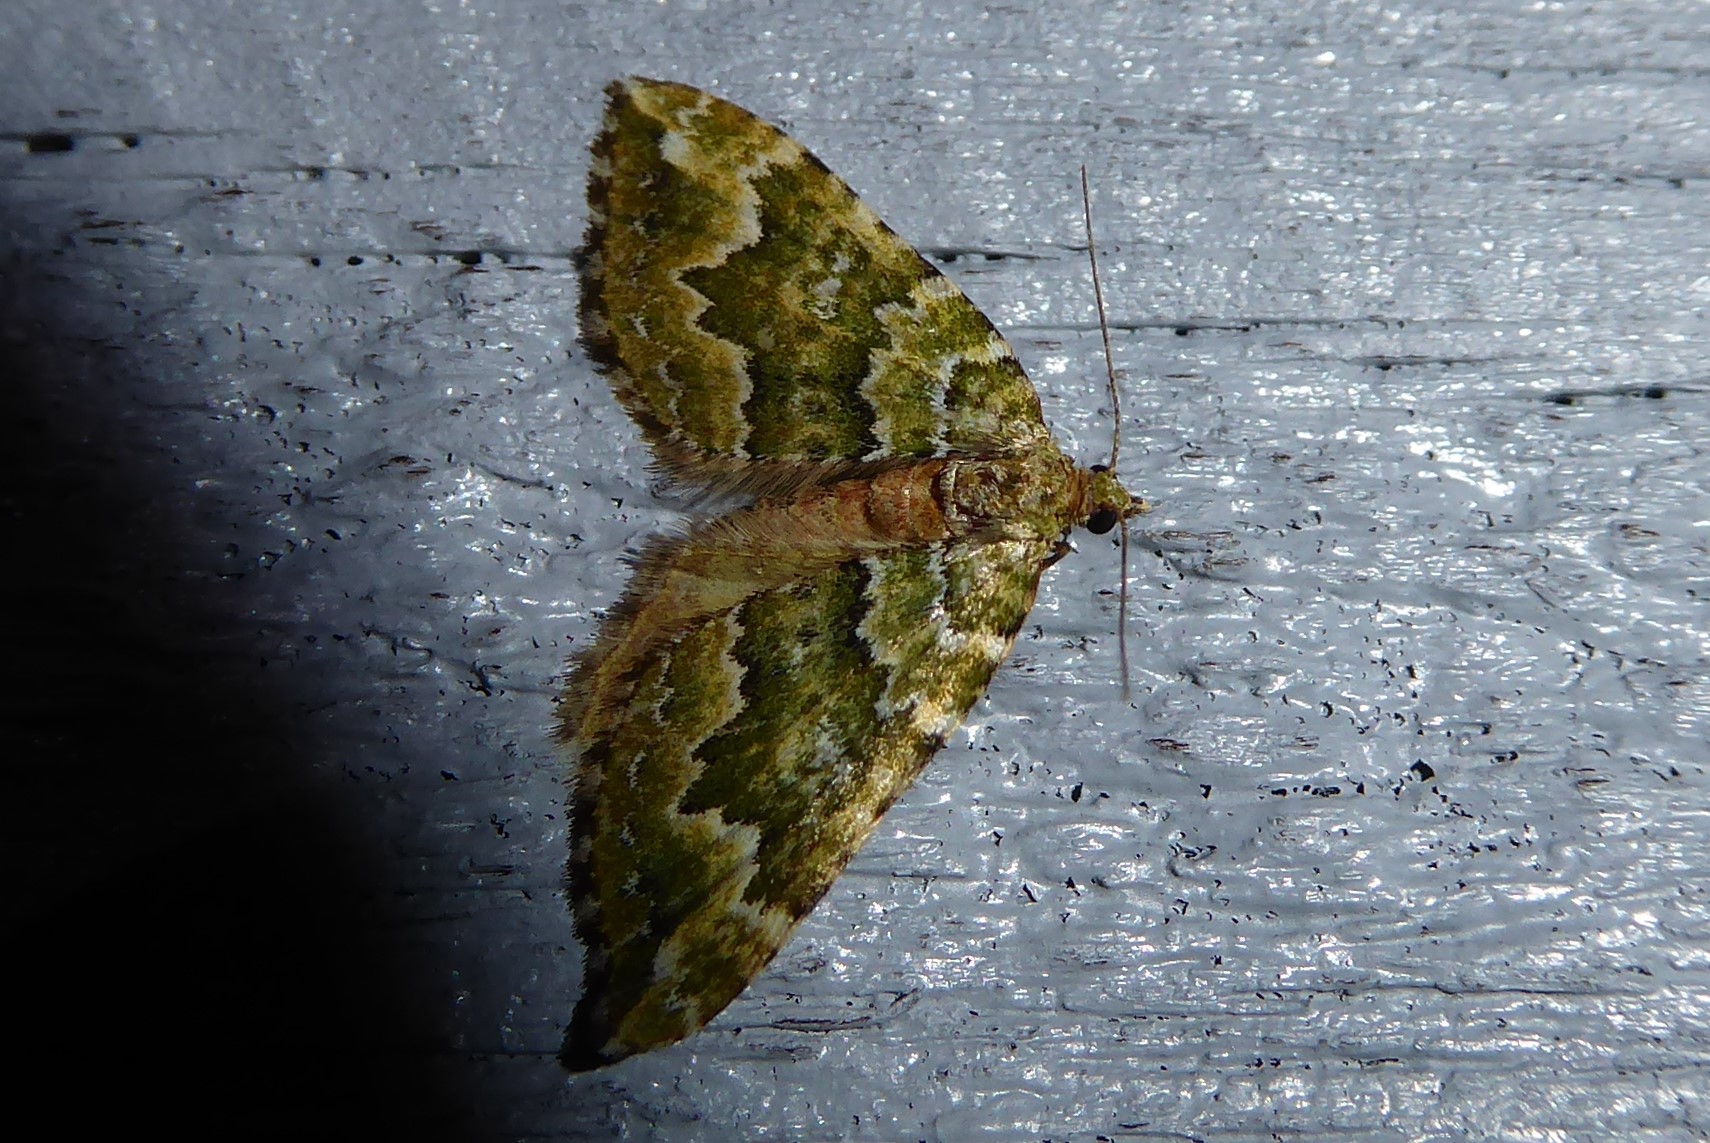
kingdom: Animalia
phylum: Arthropoda
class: Insecta
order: Lepidoptera
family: Geometridae
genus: Asaphodes
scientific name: Asaphodes beata
